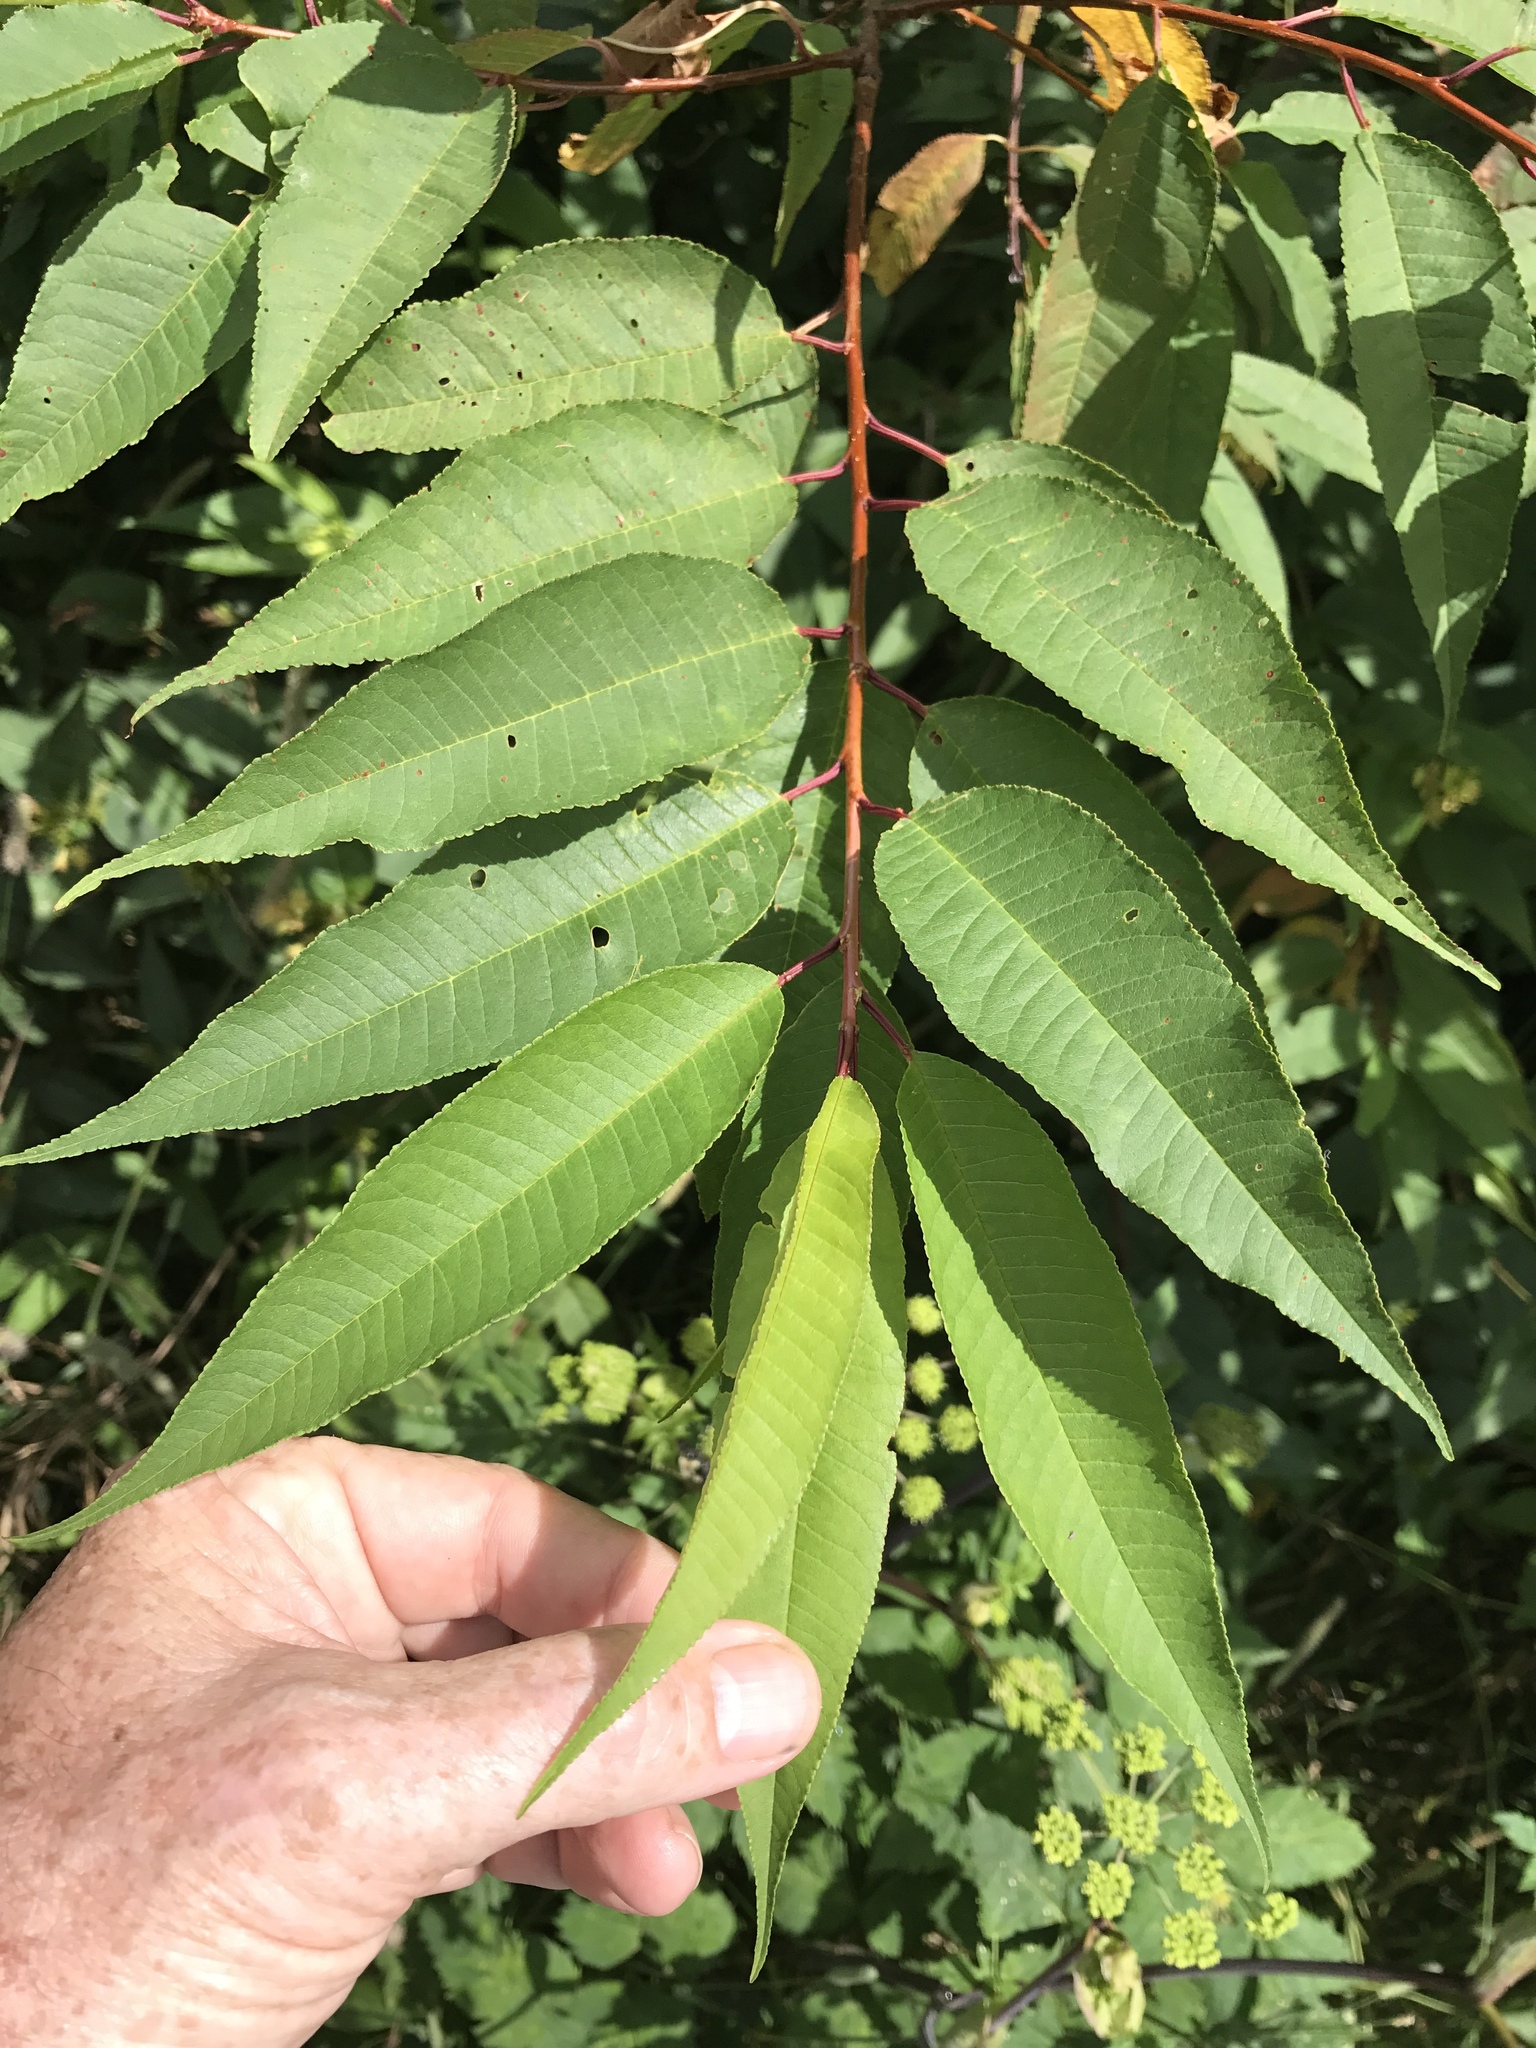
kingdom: Plantae
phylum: Tracheophyta
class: Magnoliopsida
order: Rosales
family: Rosaceae
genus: Prunus
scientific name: Prunus pensylvanica
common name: Pin cherry
